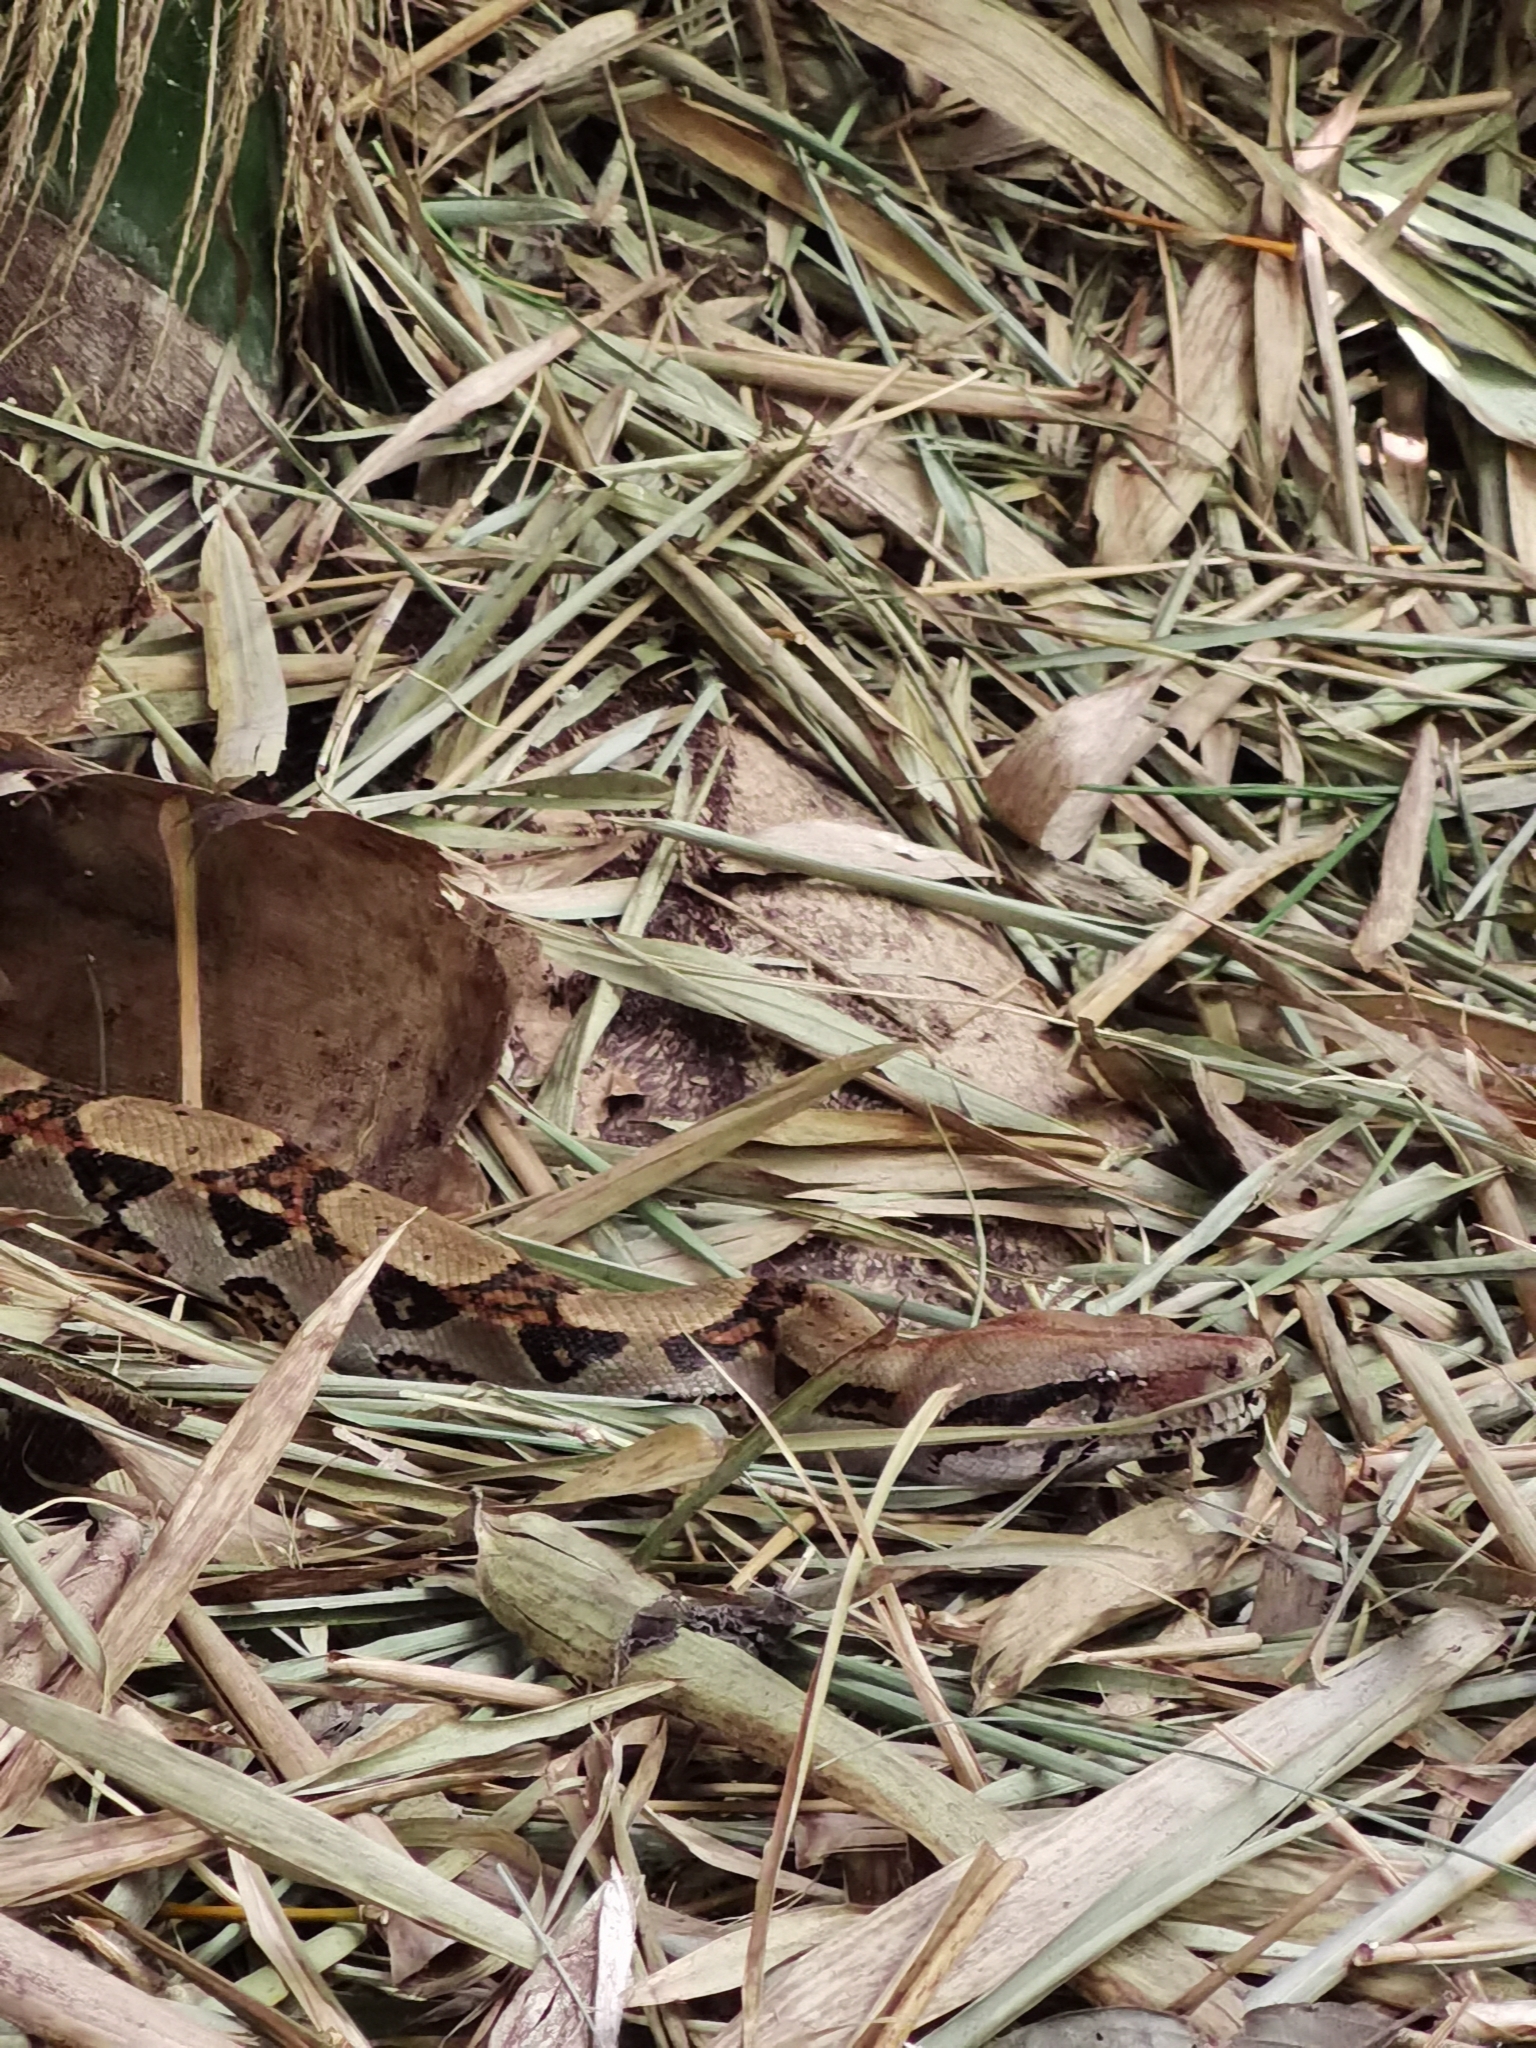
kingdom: Animalia
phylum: Chordata
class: Squamata
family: Boidae
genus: Boa
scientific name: Boa imperator
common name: Central american boa
